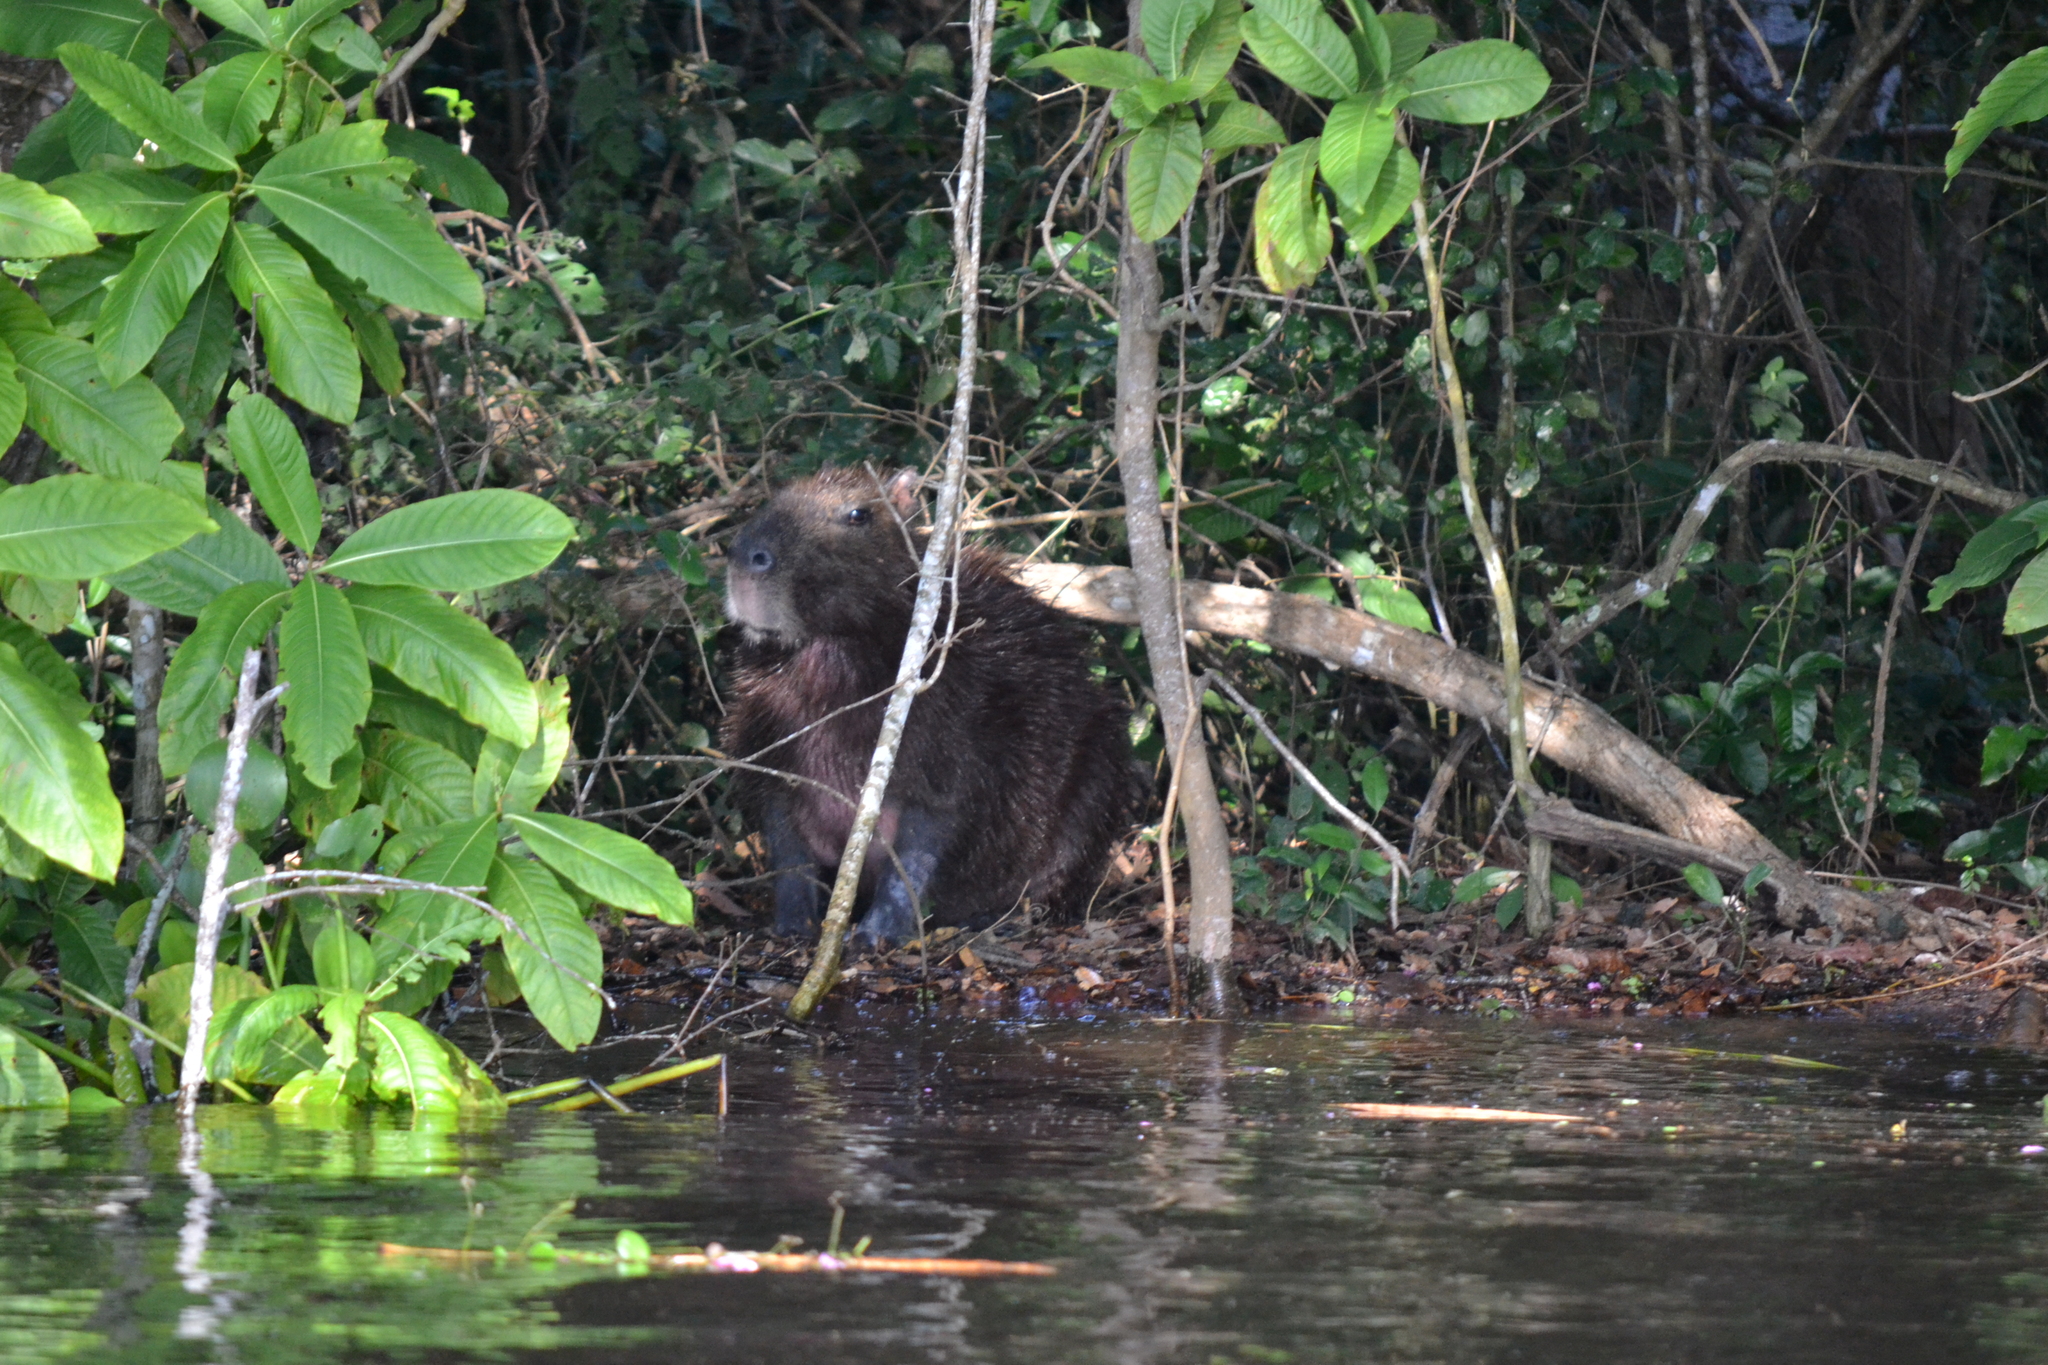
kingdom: Animalia
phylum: Chordata
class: Mammalia
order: Rodentia
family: Caviidae
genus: Hydrochoerus
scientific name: Hydrochoerus hydrochaeris
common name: Capybara
